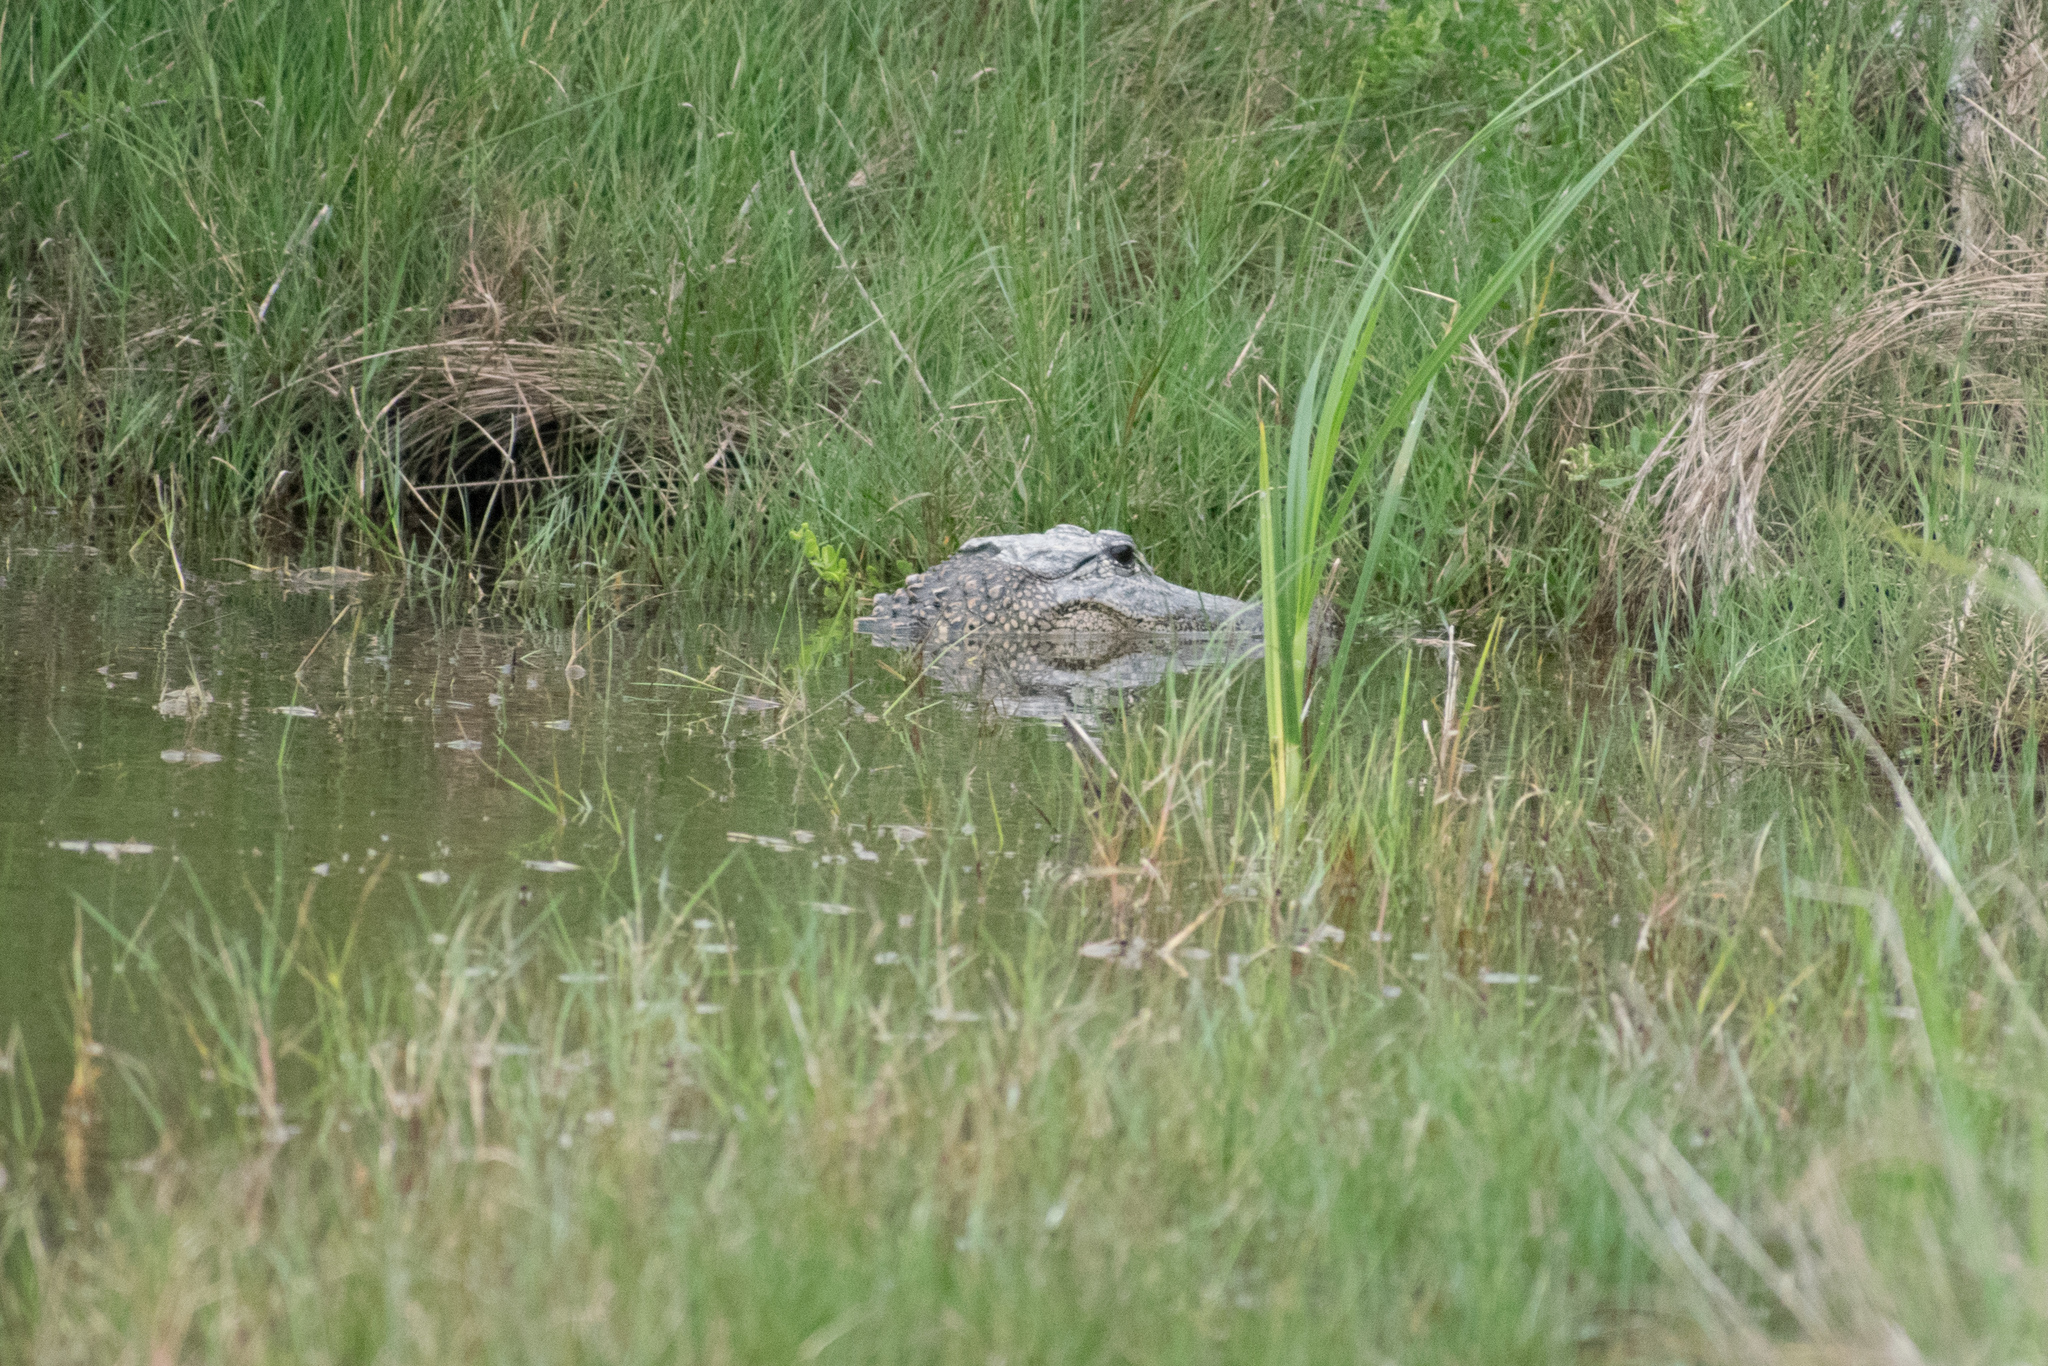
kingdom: Animalia
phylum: Chordata
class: Crocodylia
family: Alligatoridae
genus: Alligator
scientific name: Alligator mississippiensis
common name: American alligator
